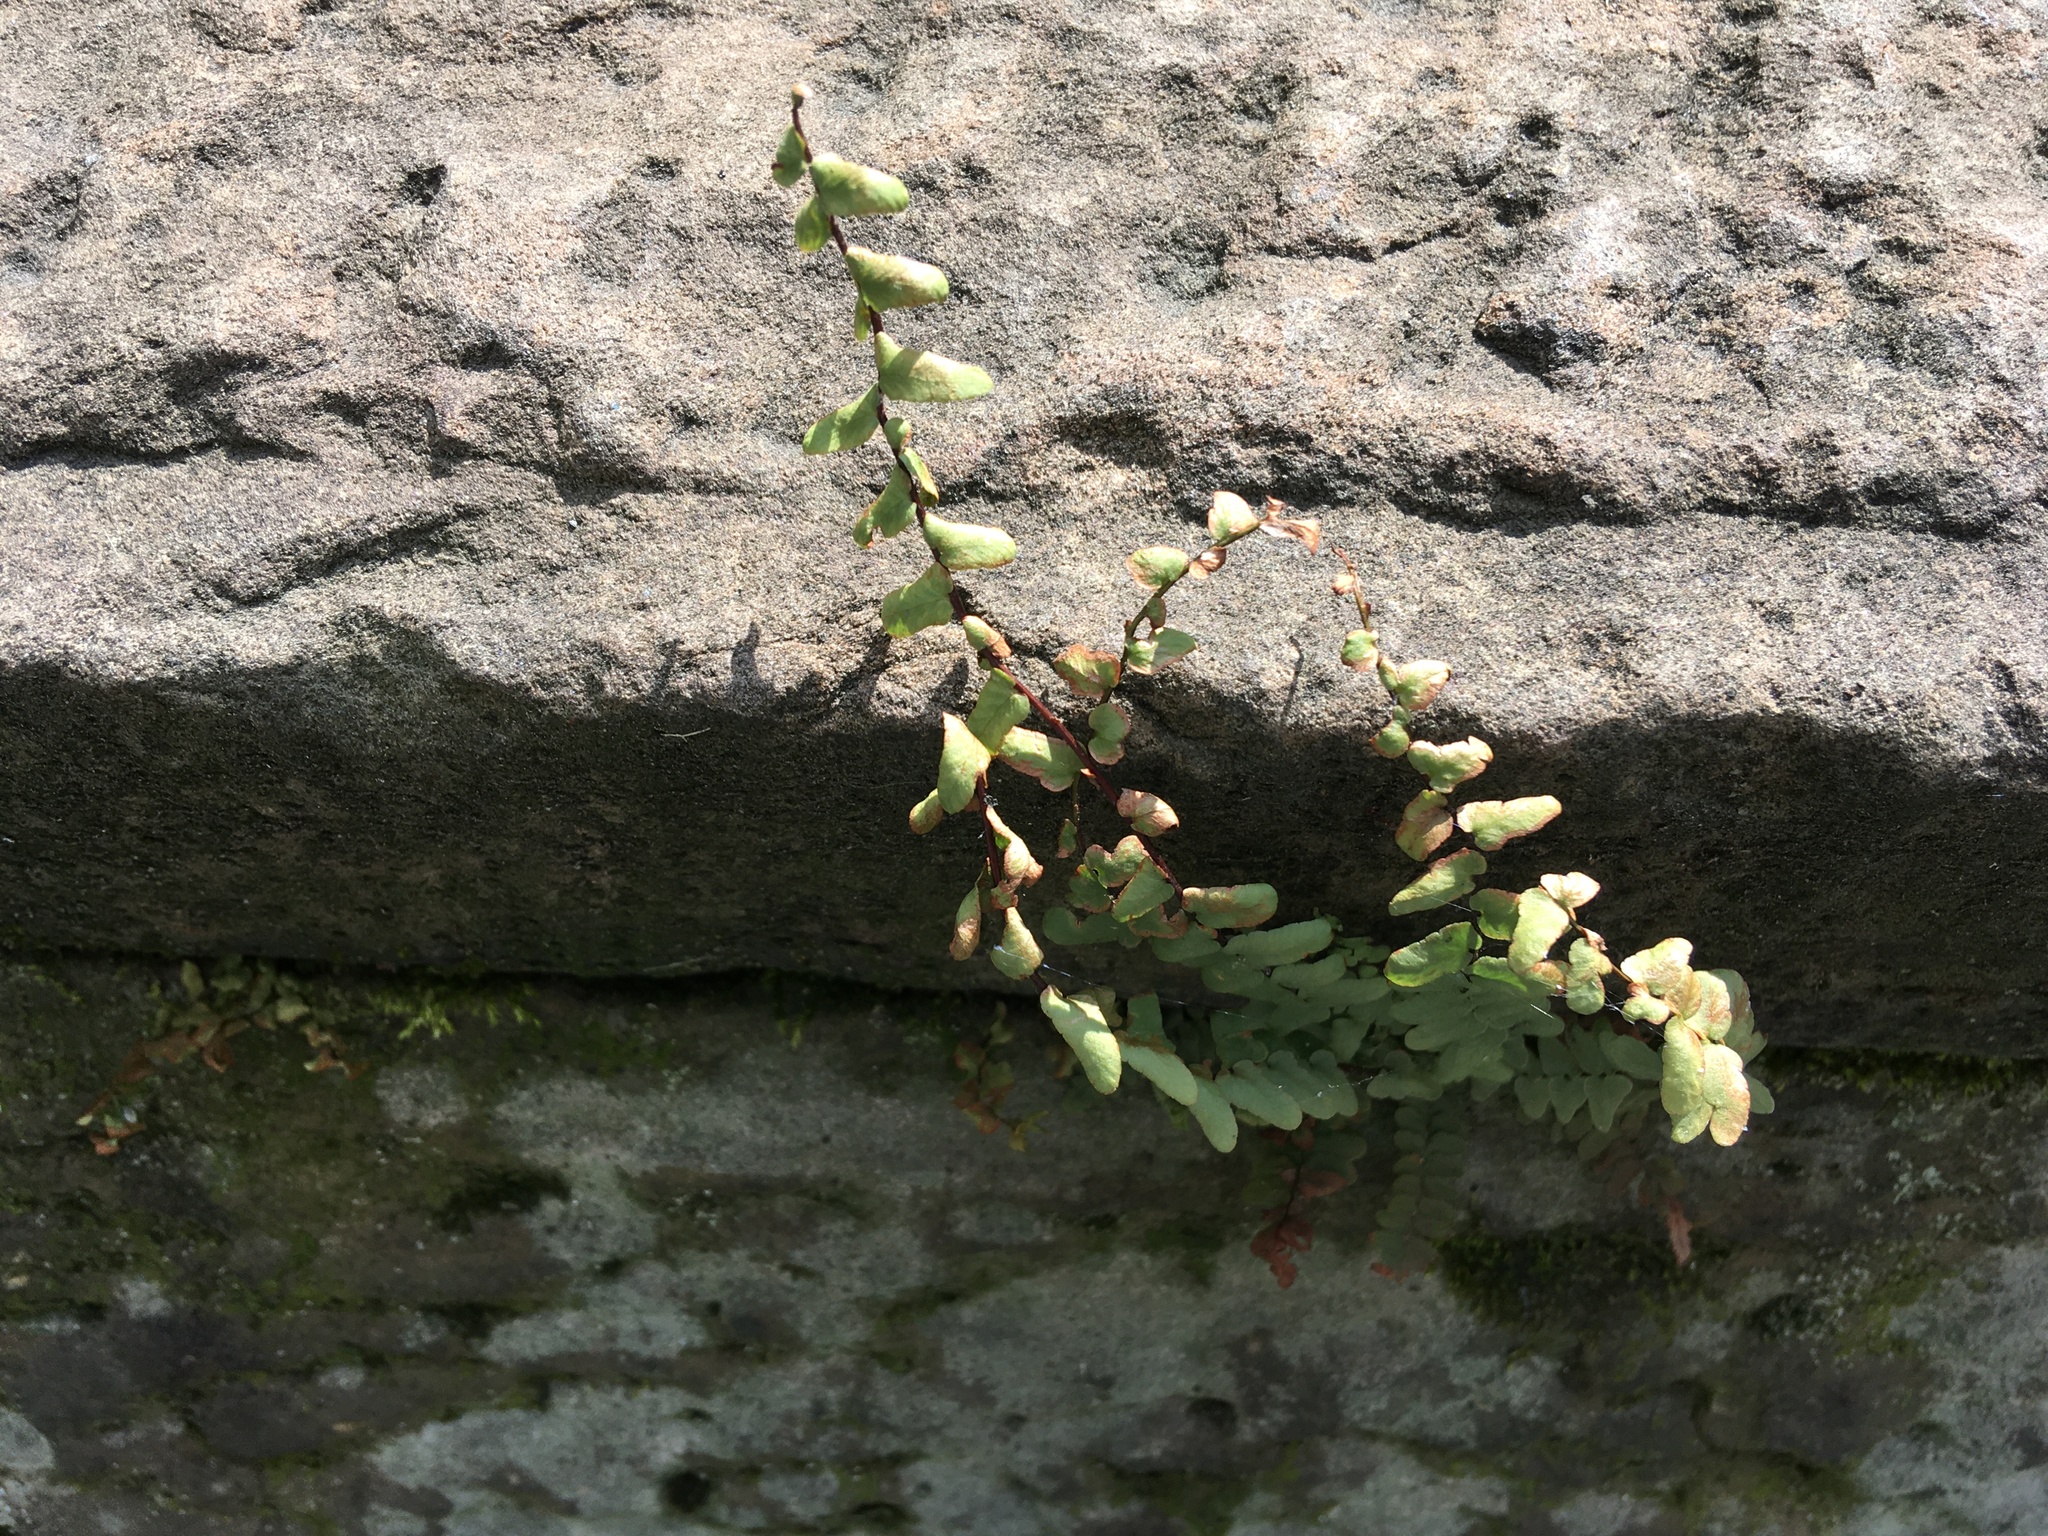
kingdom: Plantae
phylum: Tracheophyta
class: Polypodiopsida
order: Polypodiales
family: Aspleniaceae
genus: Asplenium
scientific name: Asplenium platyneuron
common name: Ebony spleenwort
